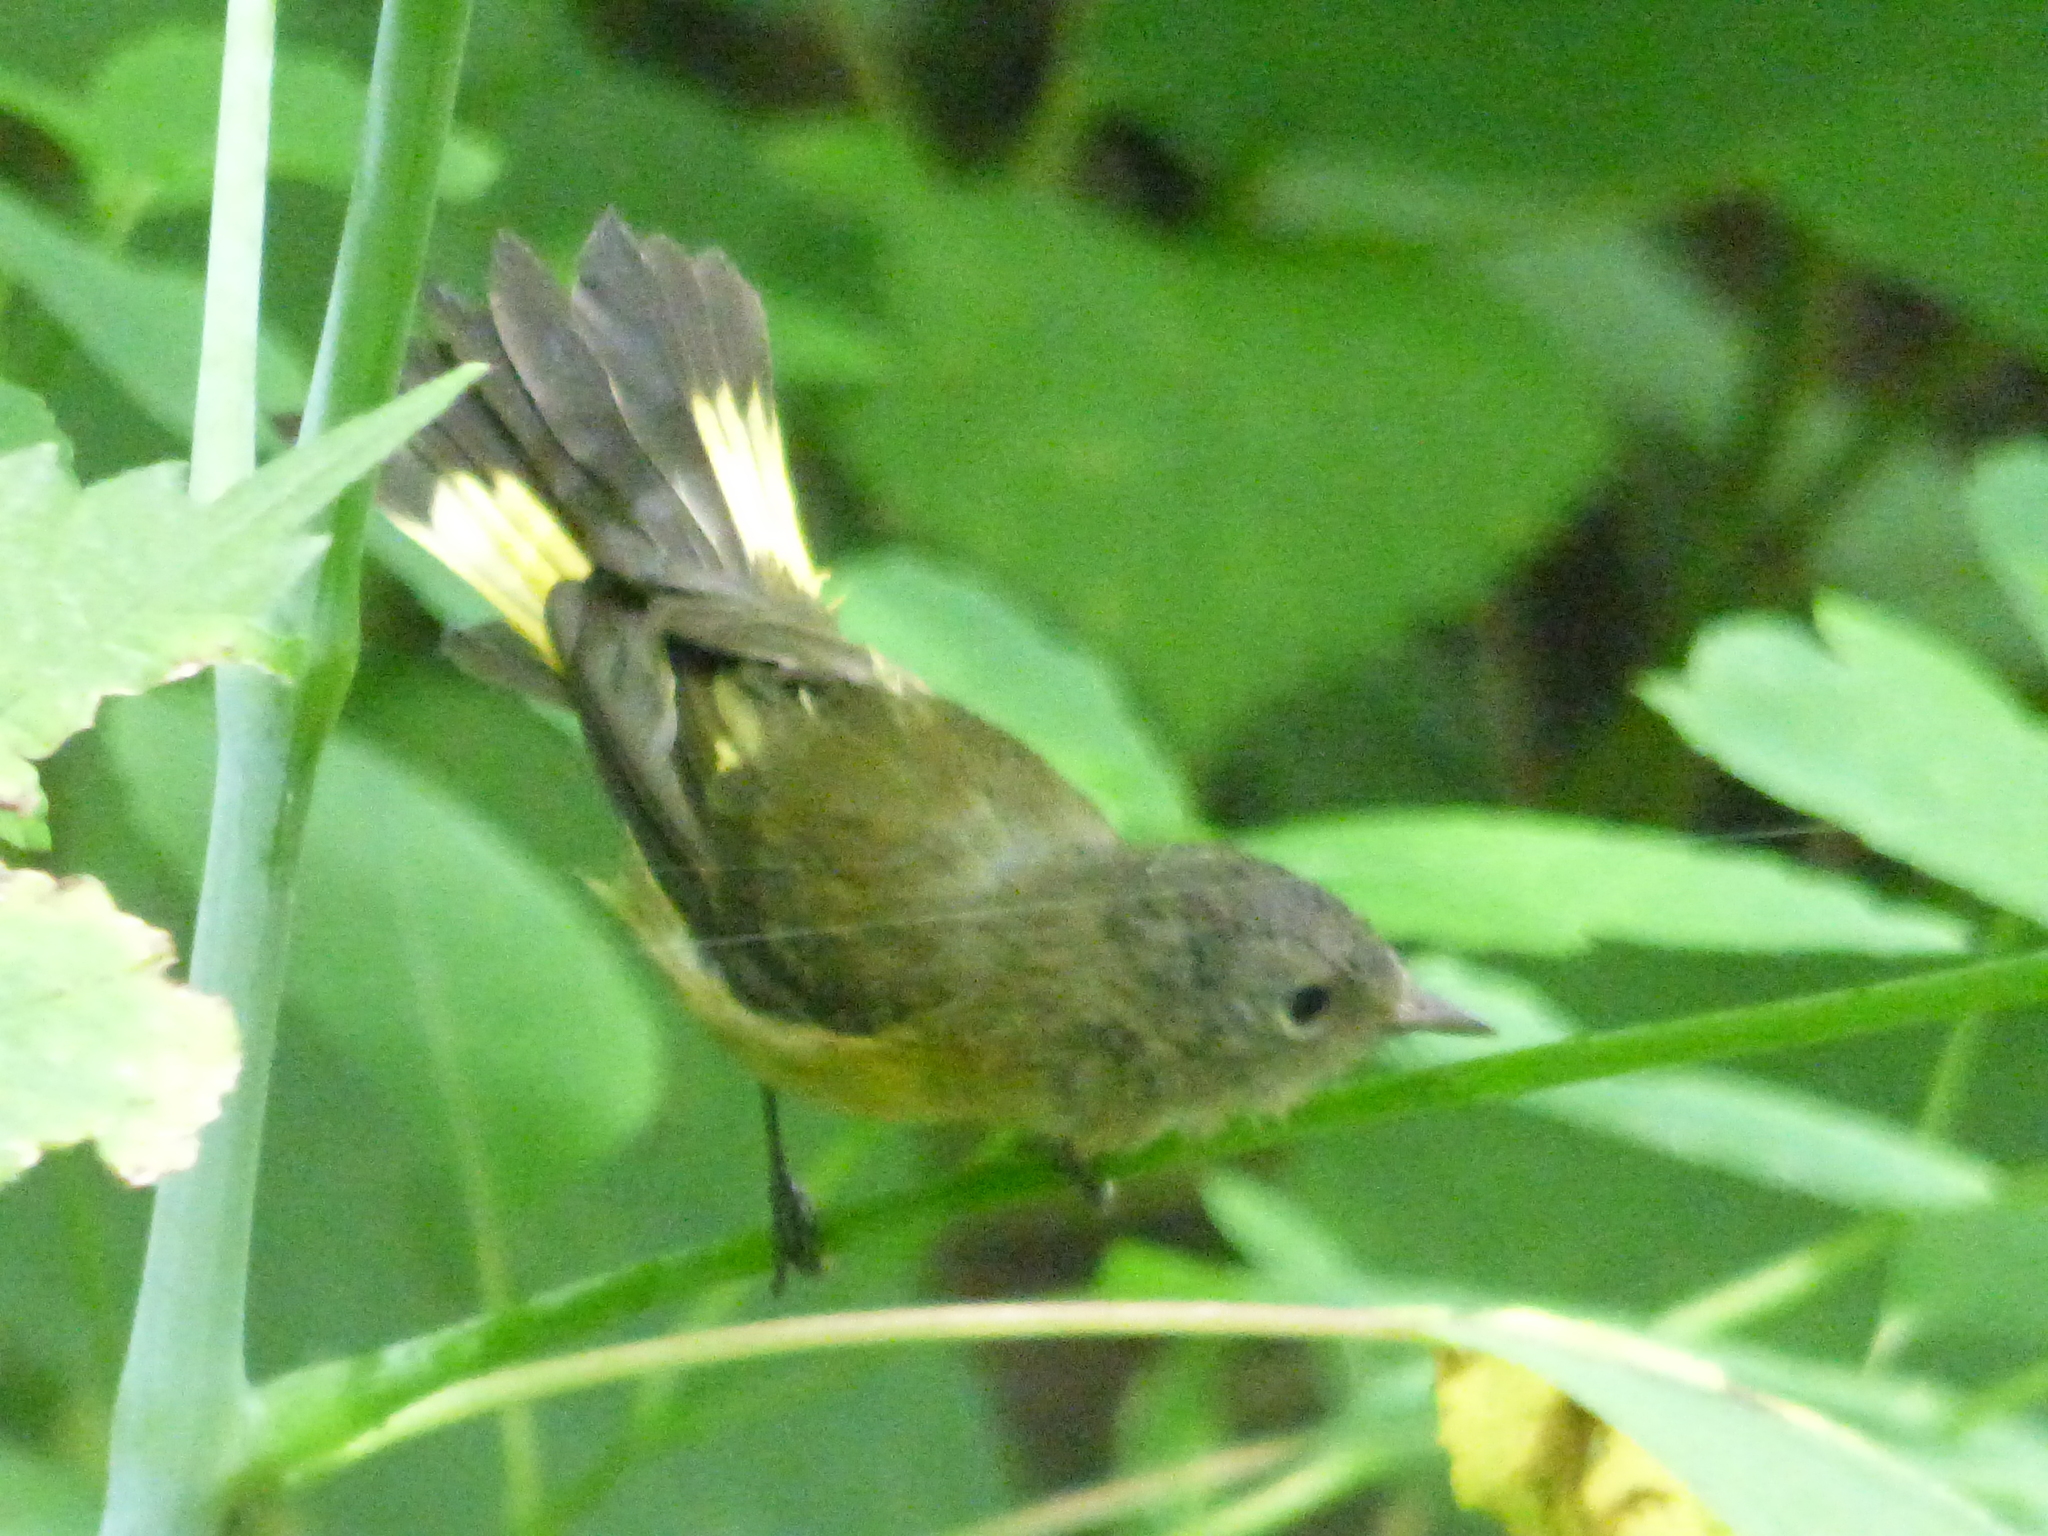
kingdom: Animalia
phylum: Chordata
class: Aves
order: Passeriformes
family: Parulidae
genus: Setophaga
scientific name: Setophaga ruticilla
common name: American redstart
